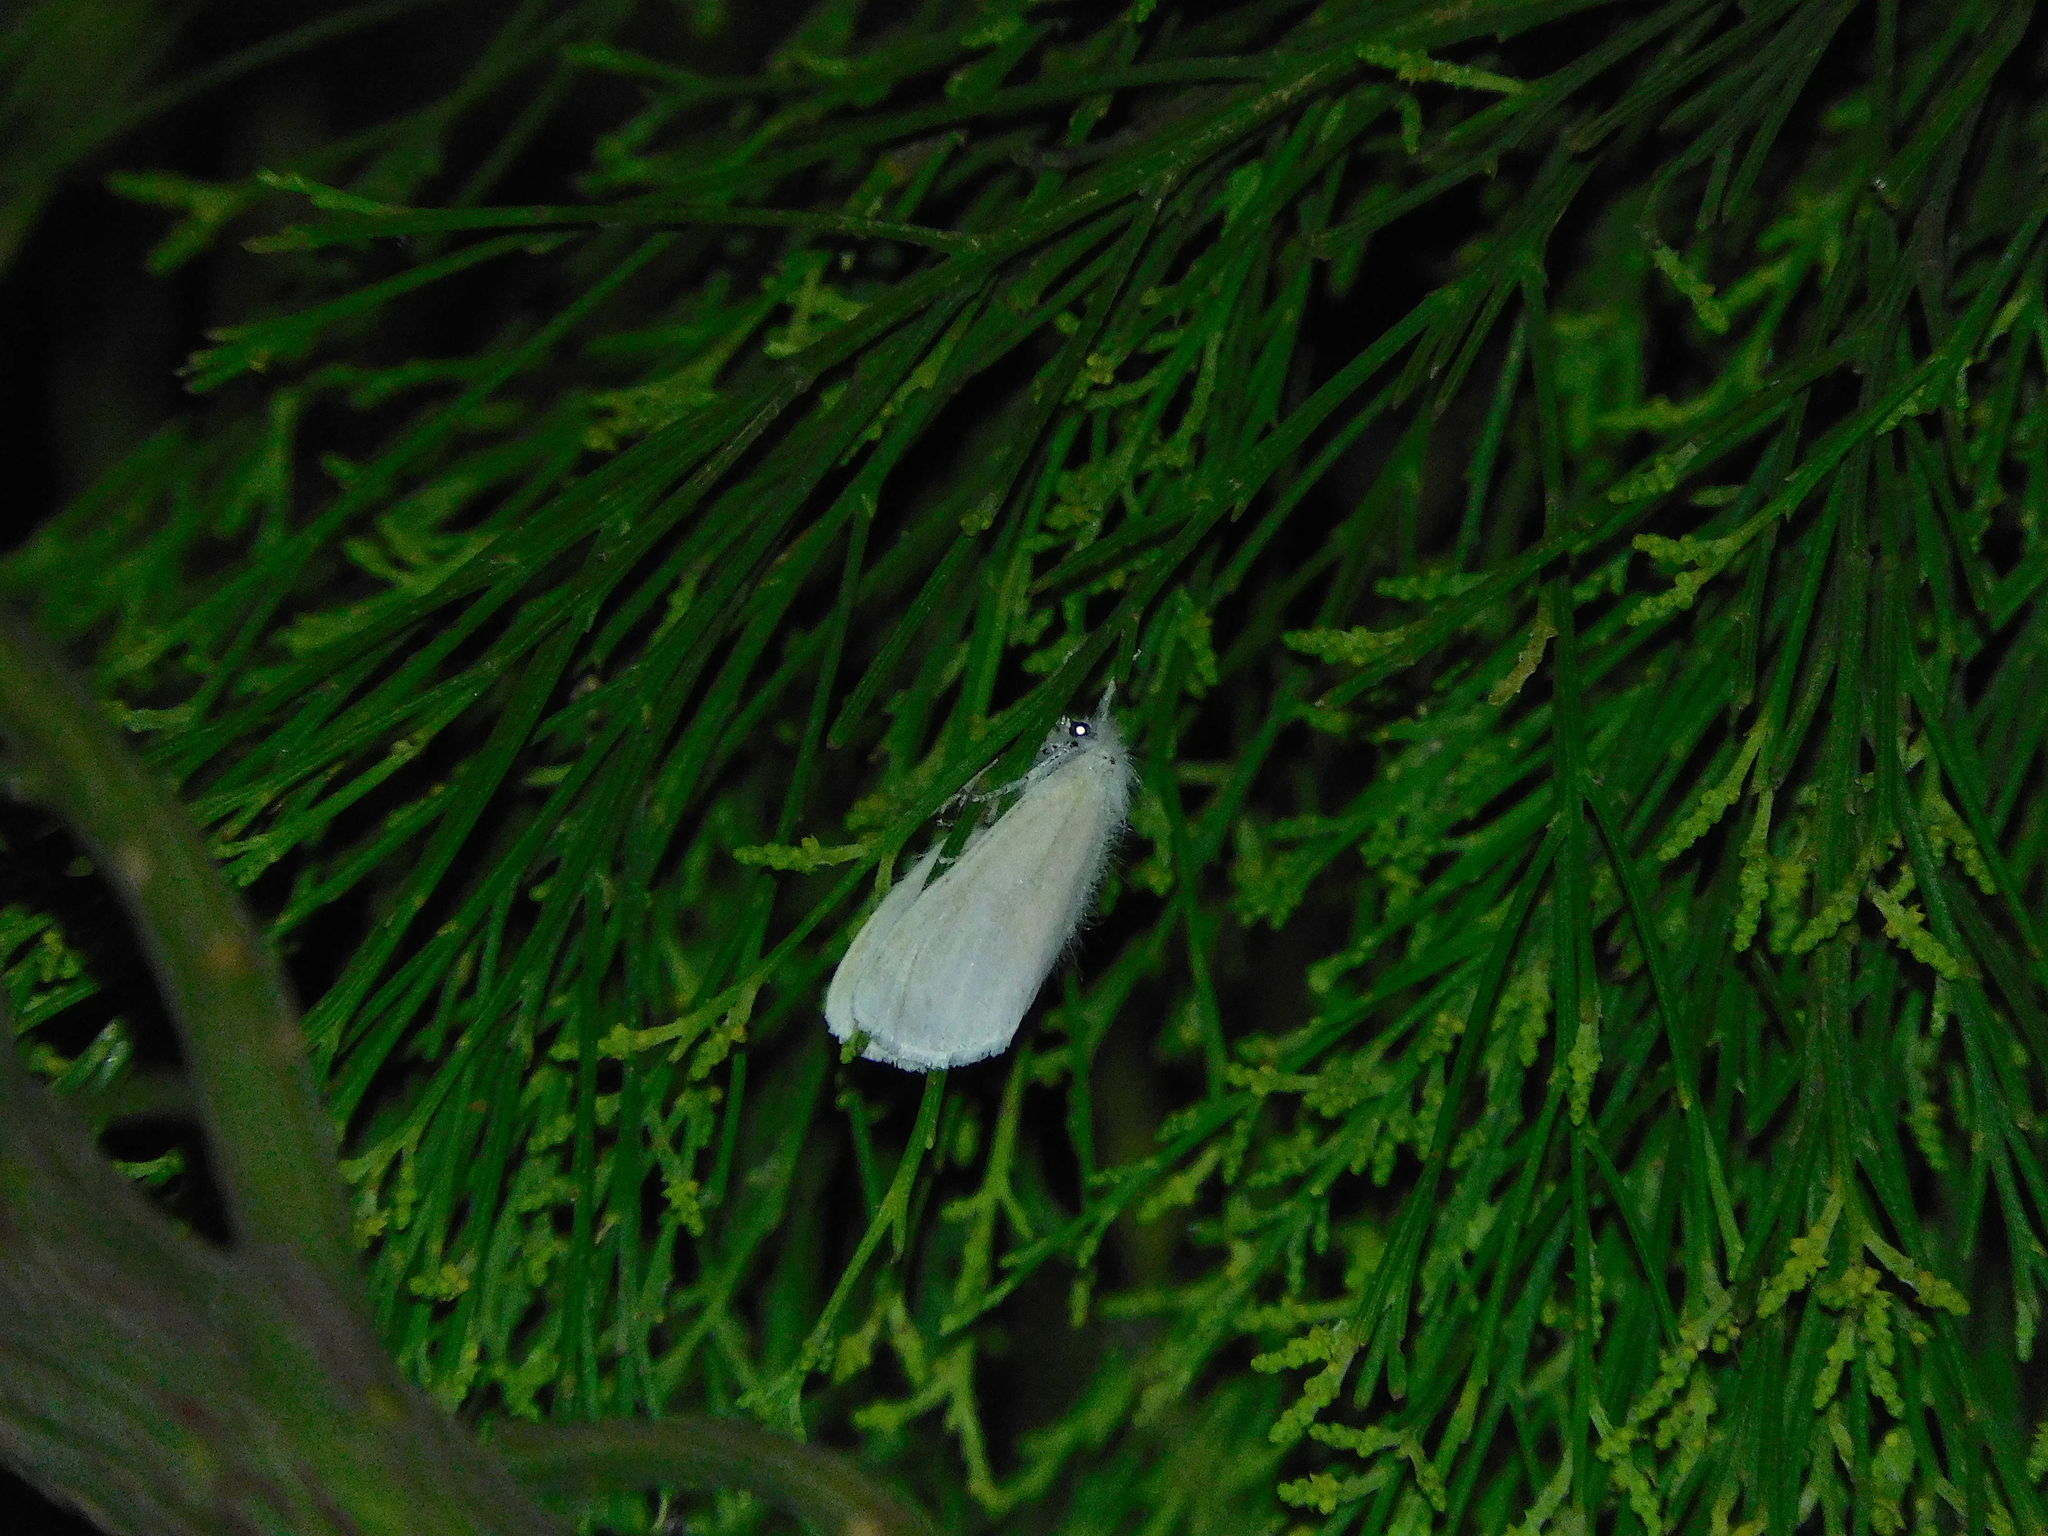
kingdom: Animalia
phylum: Arthropoda
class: Insecta
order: Lepidoptera
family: Erebidae
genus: Acyphas
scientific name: Acyphas semiochrea
